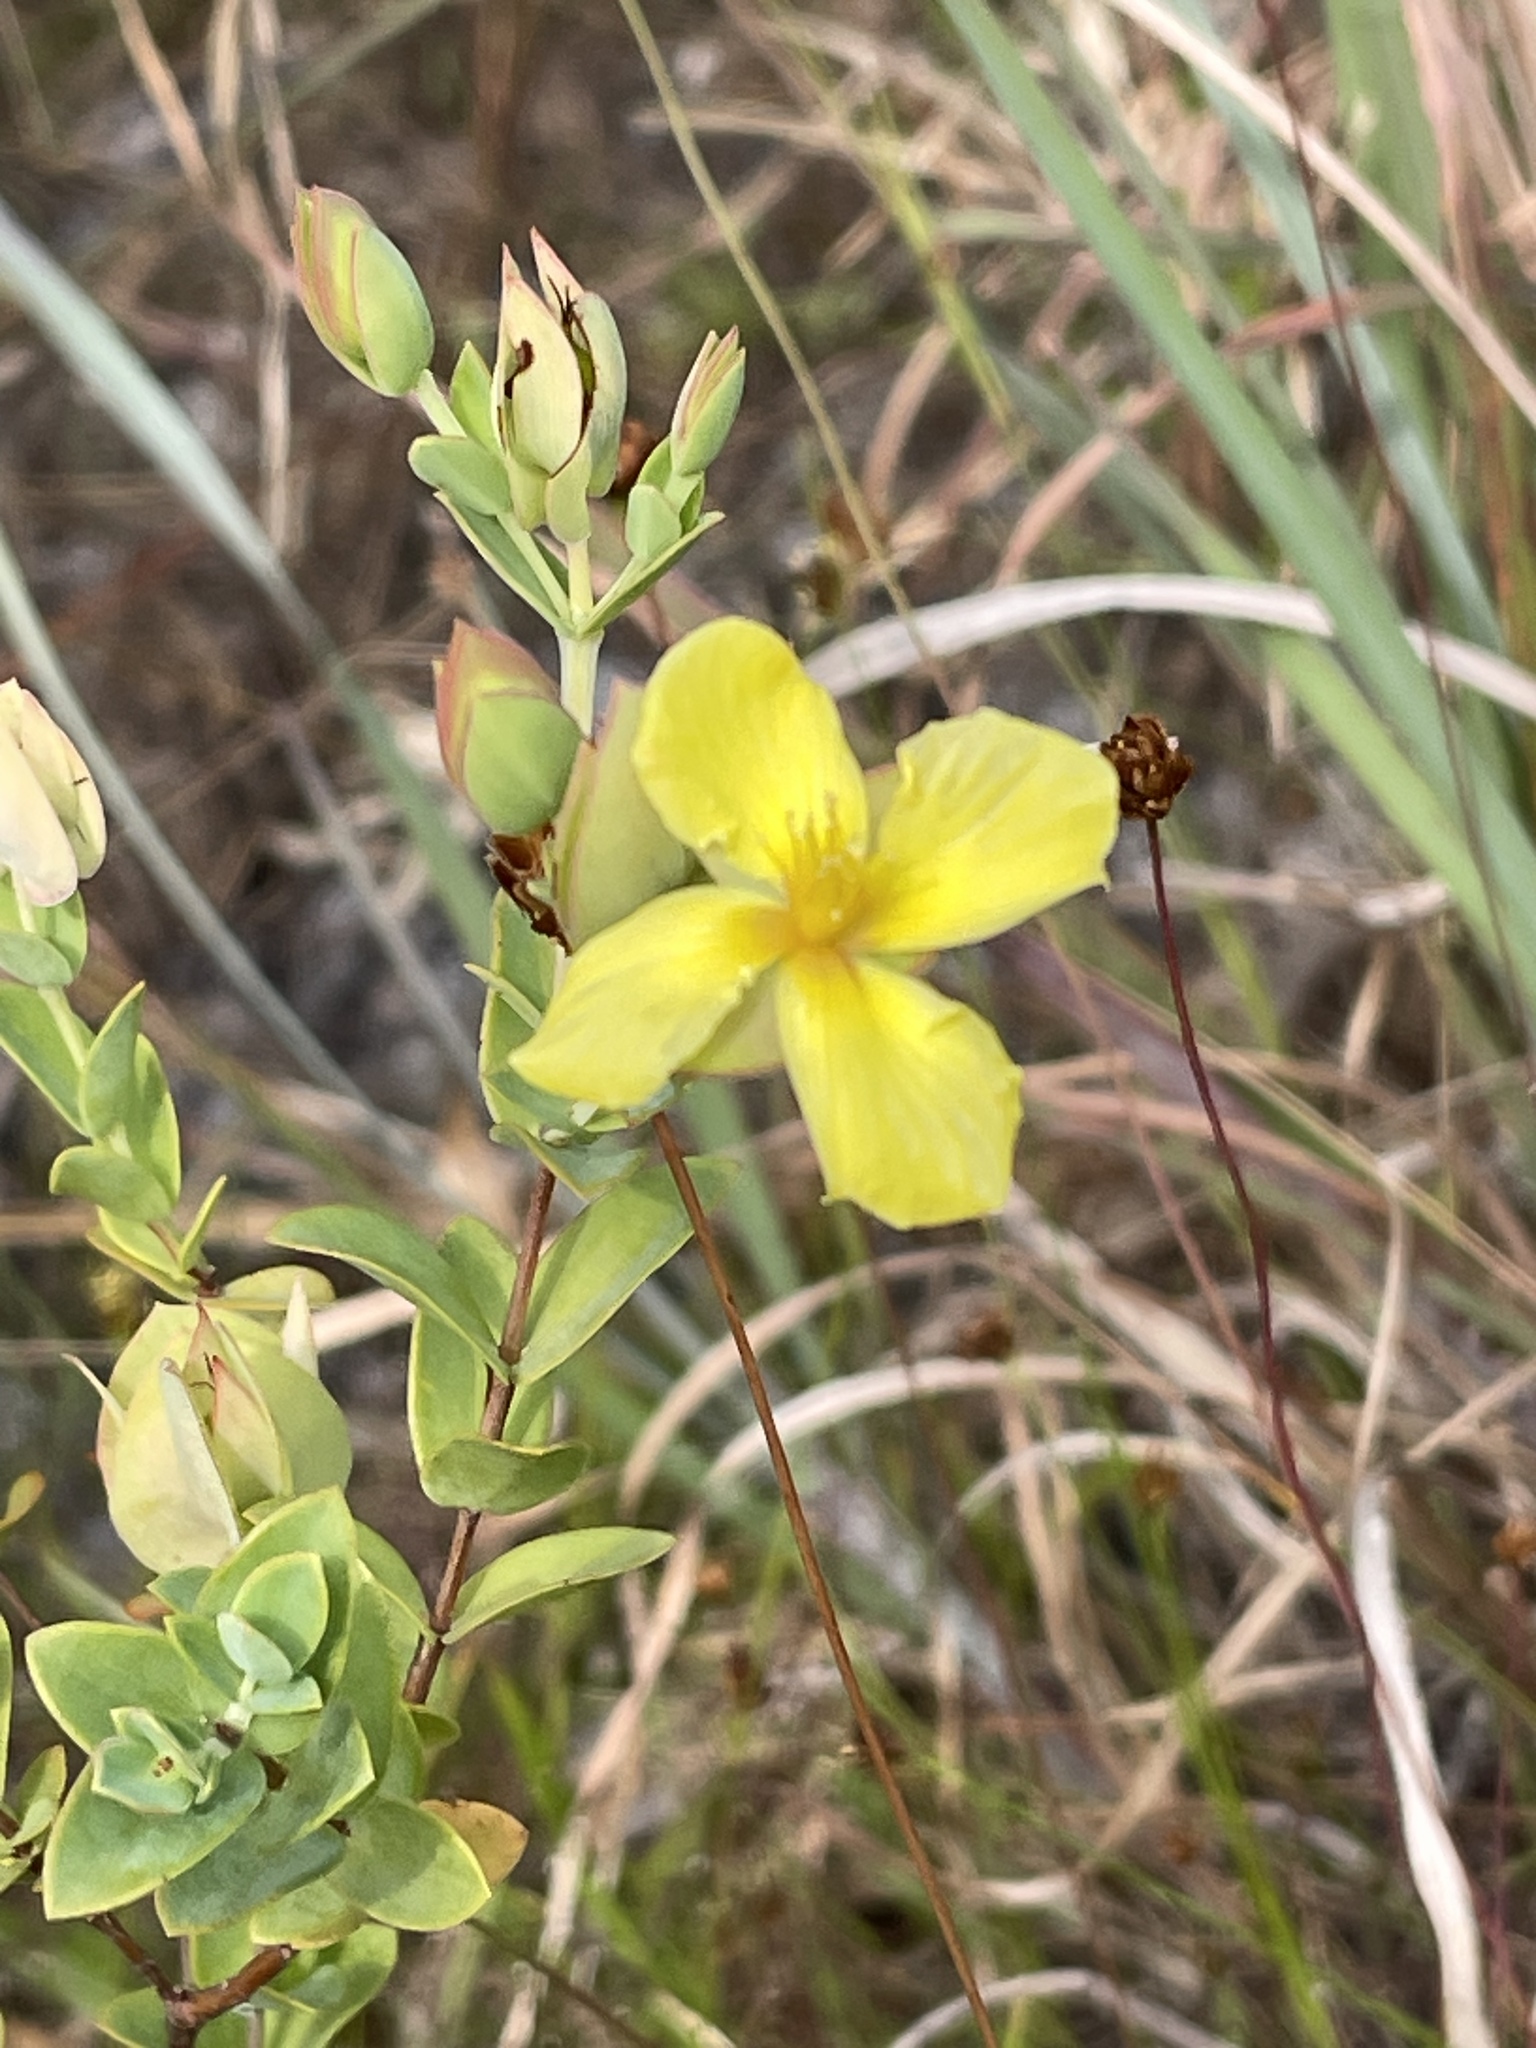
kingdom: Plantae
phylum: Tracheophyta
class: Magnoliopsida
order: Malpighiales
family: Hypericaceae
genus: Hypericum
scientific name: Hypericum tetrapetalum
